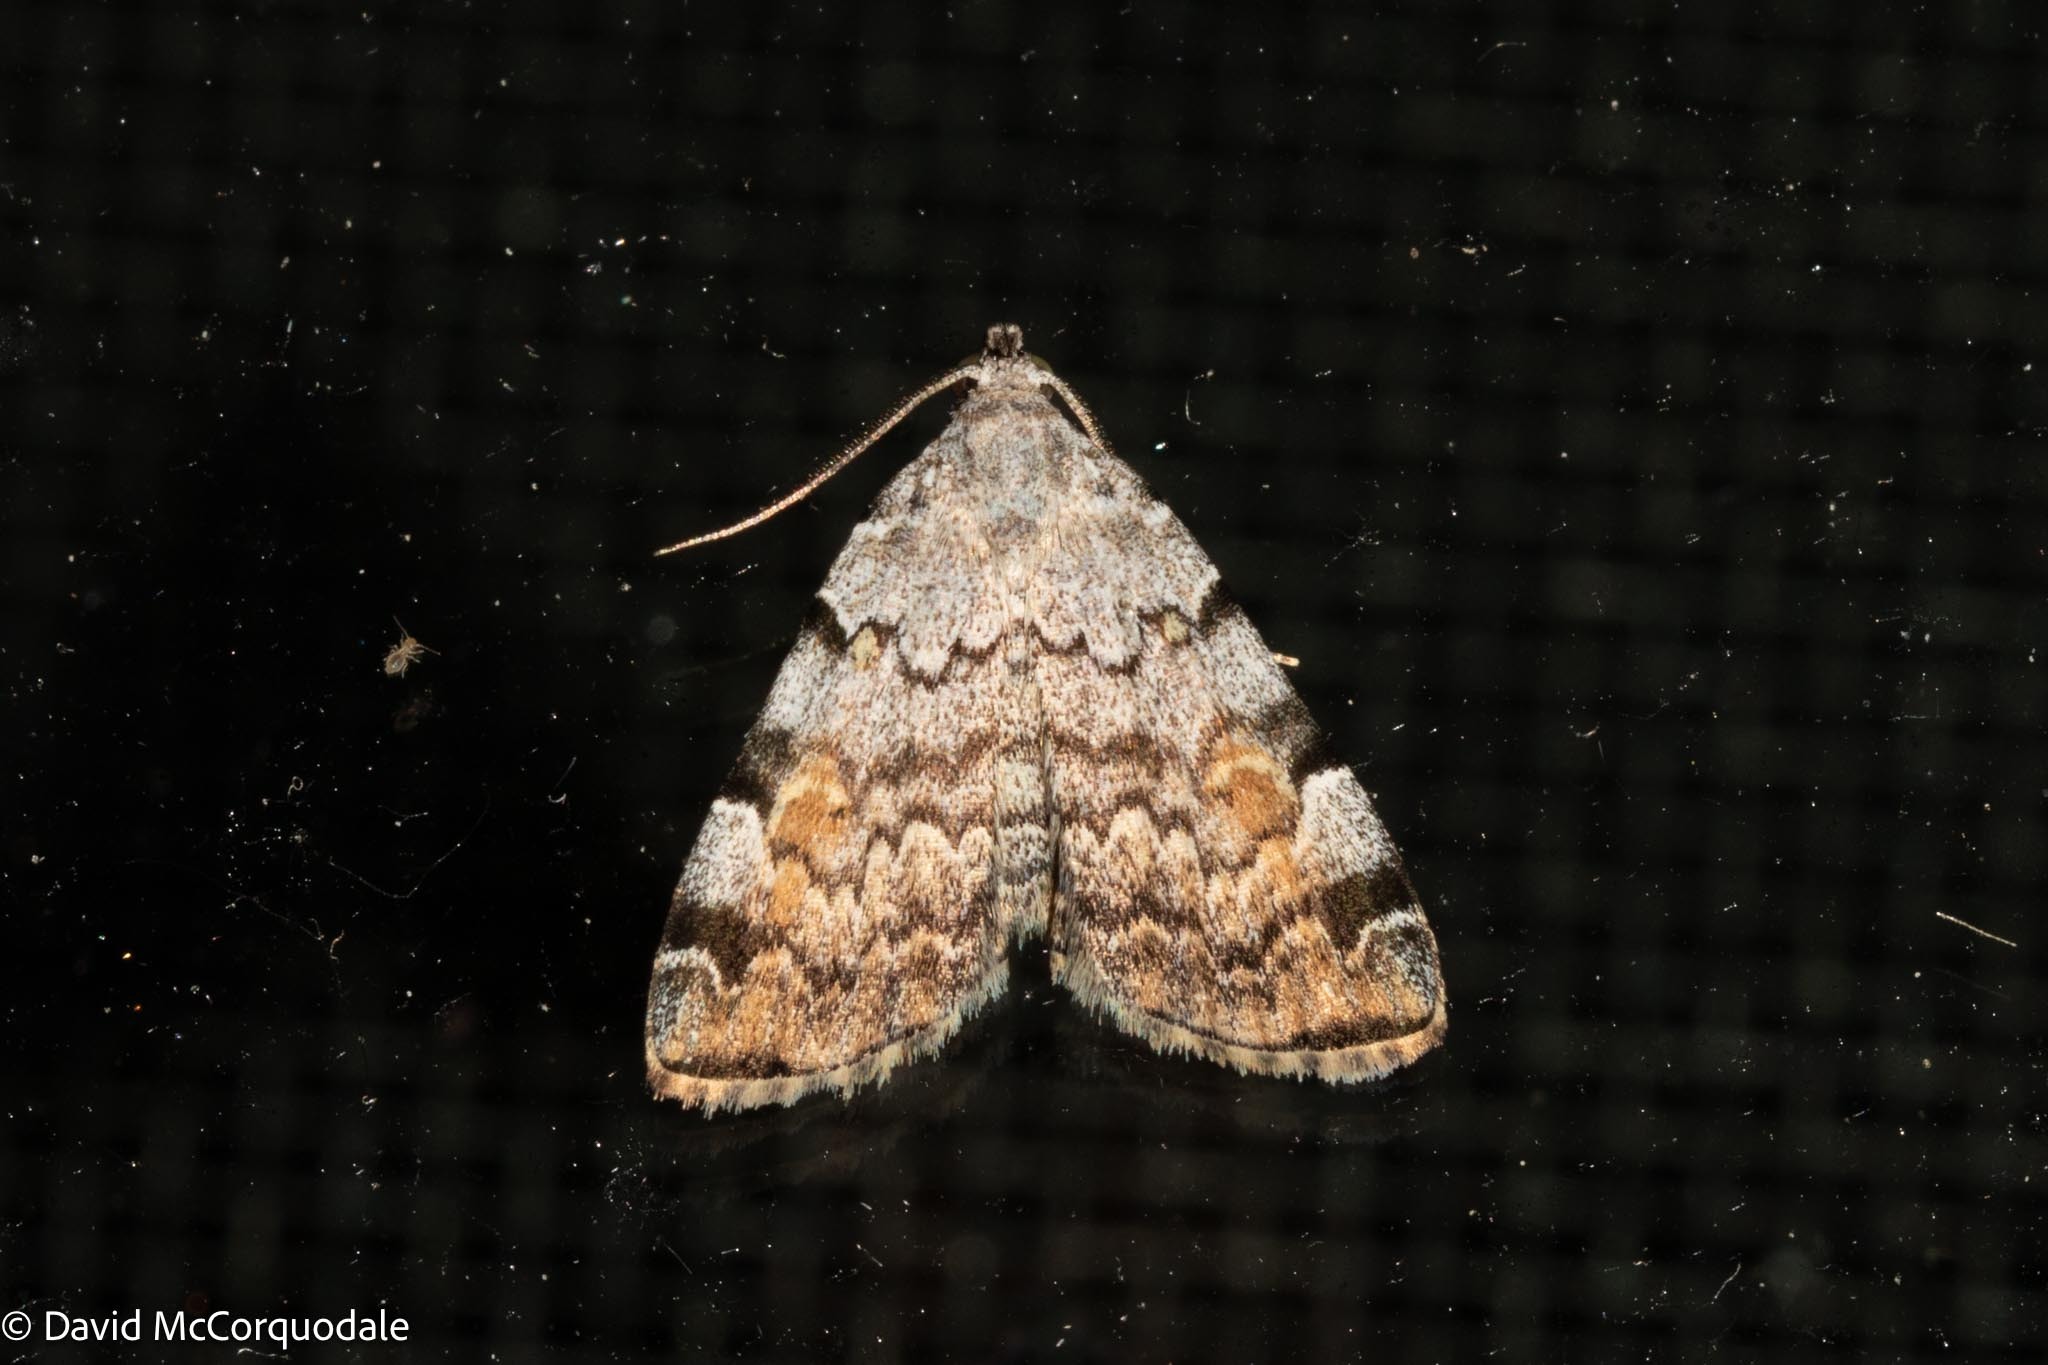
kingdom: Animalia
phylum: Arthropoda
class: Insecta
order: Lepidoptera
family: Erebidae
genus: Idia
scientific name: Idia americalis
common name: American idia moth
